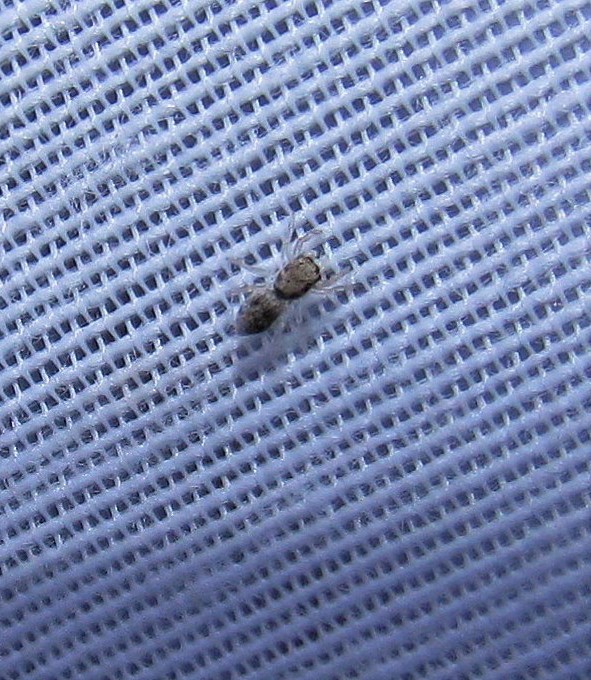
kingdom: Animalia
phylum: Arthropoda
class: Arachnida
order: Araneae
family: Salticidae
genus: Salticus
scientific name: Salticus mutabilis
